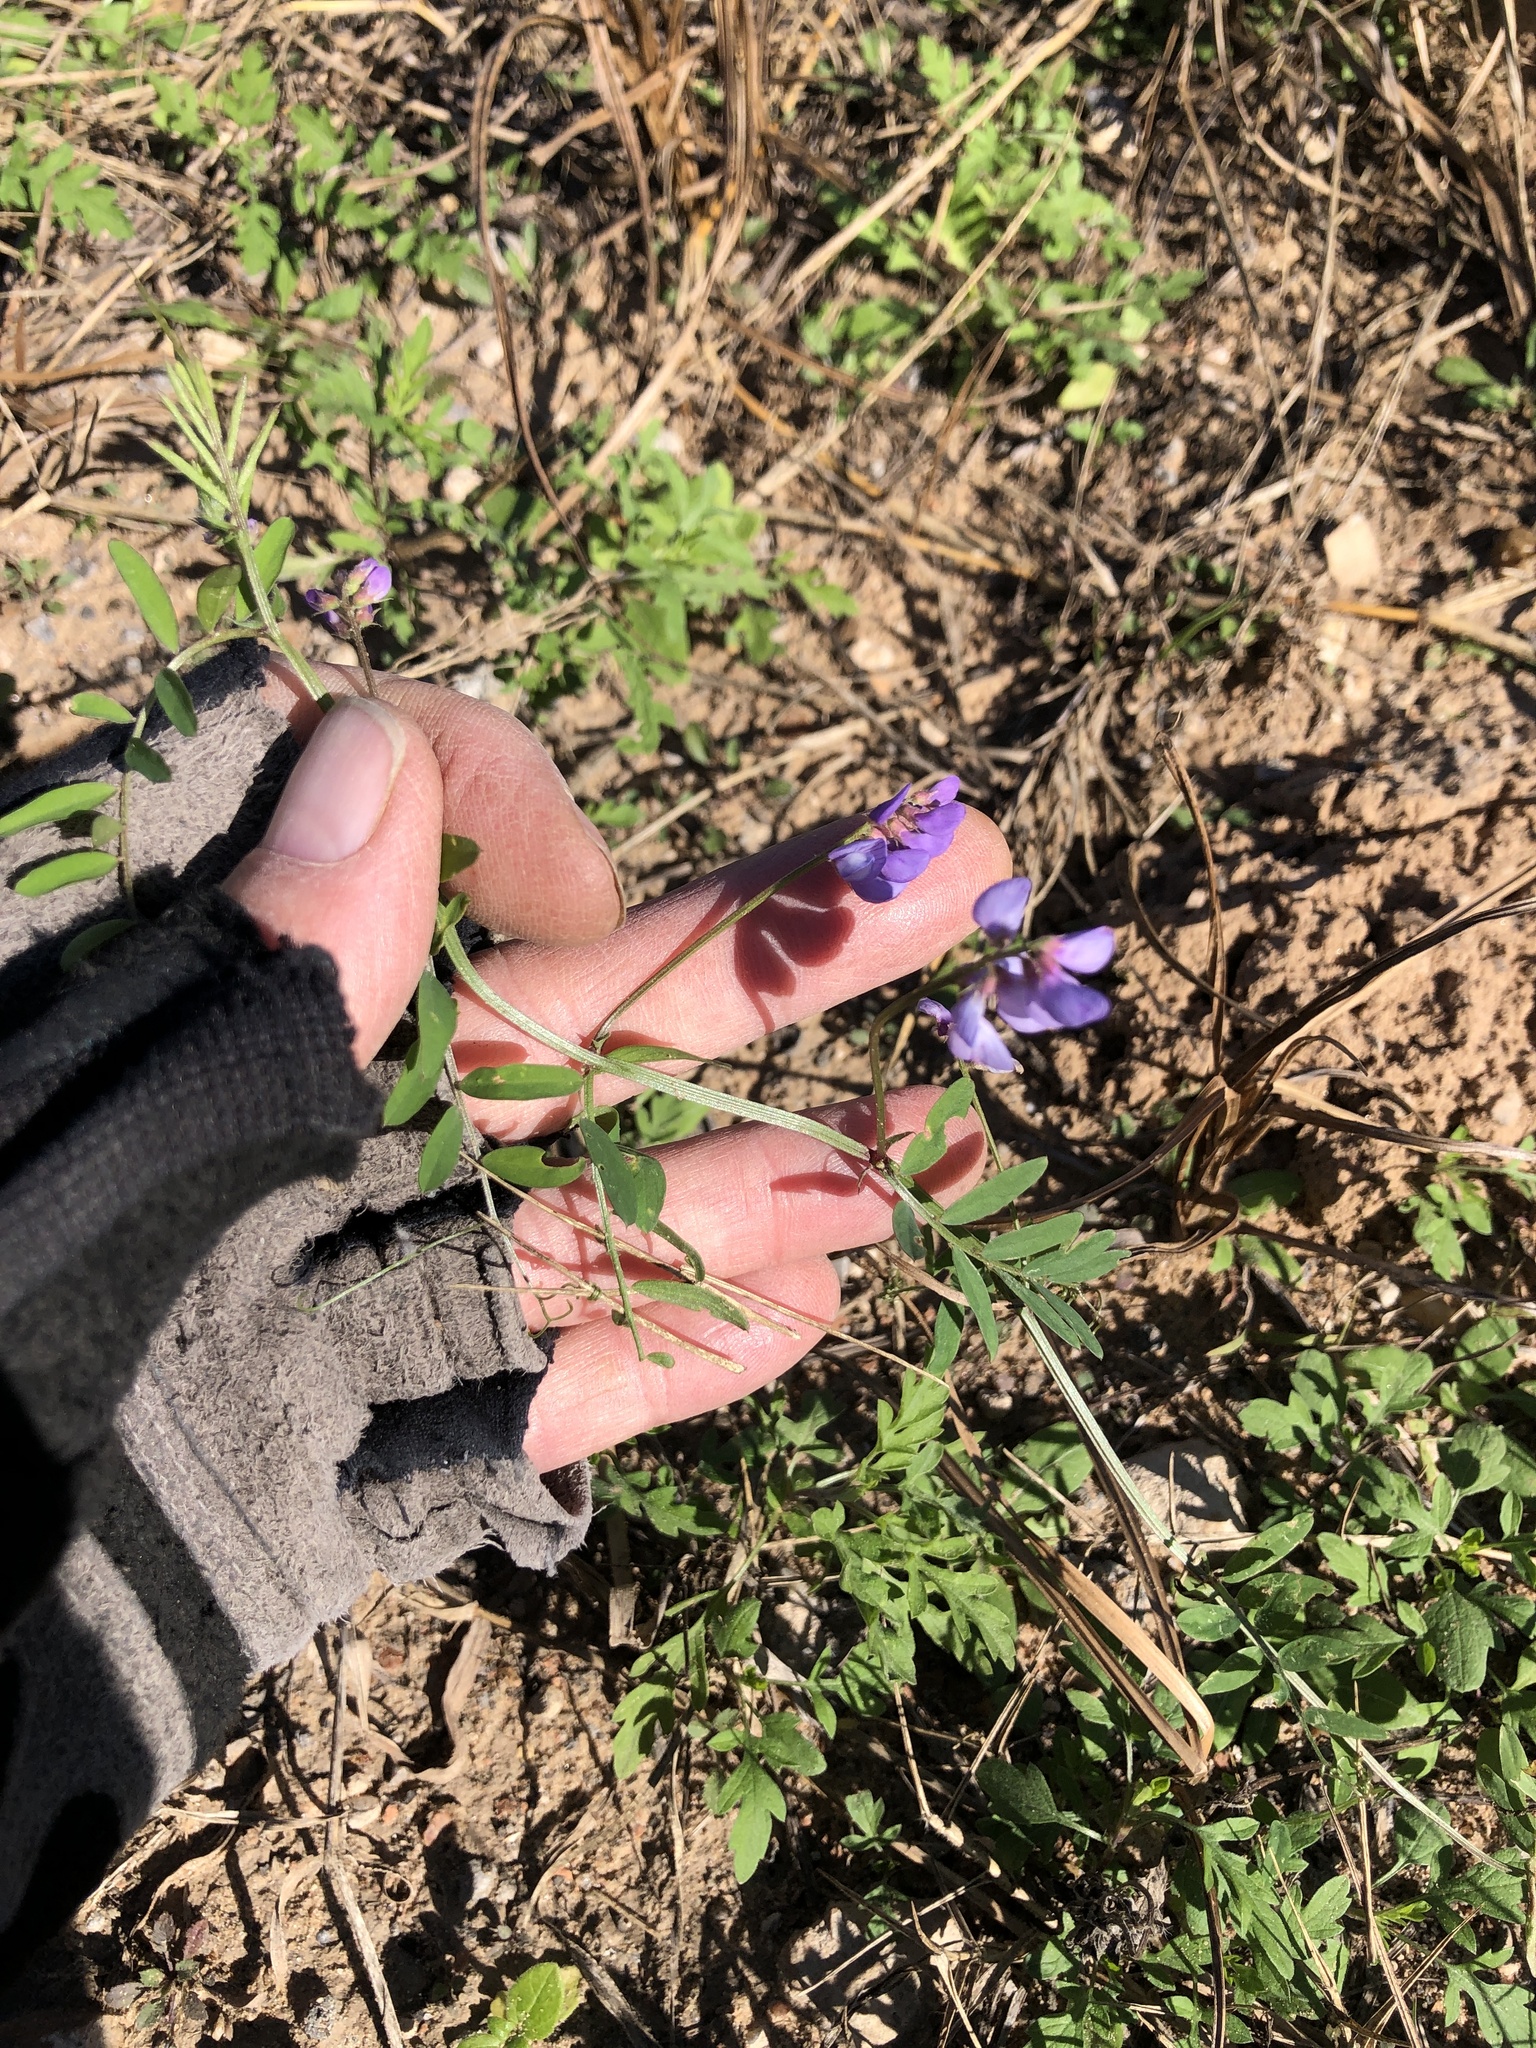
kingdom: Plantae
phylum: Tracheophyta
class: Magnoliopsida
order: Fabales
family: Fabaceae
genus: Vicia
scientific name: Vicia ludoviciana
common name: Louisiana vetch
